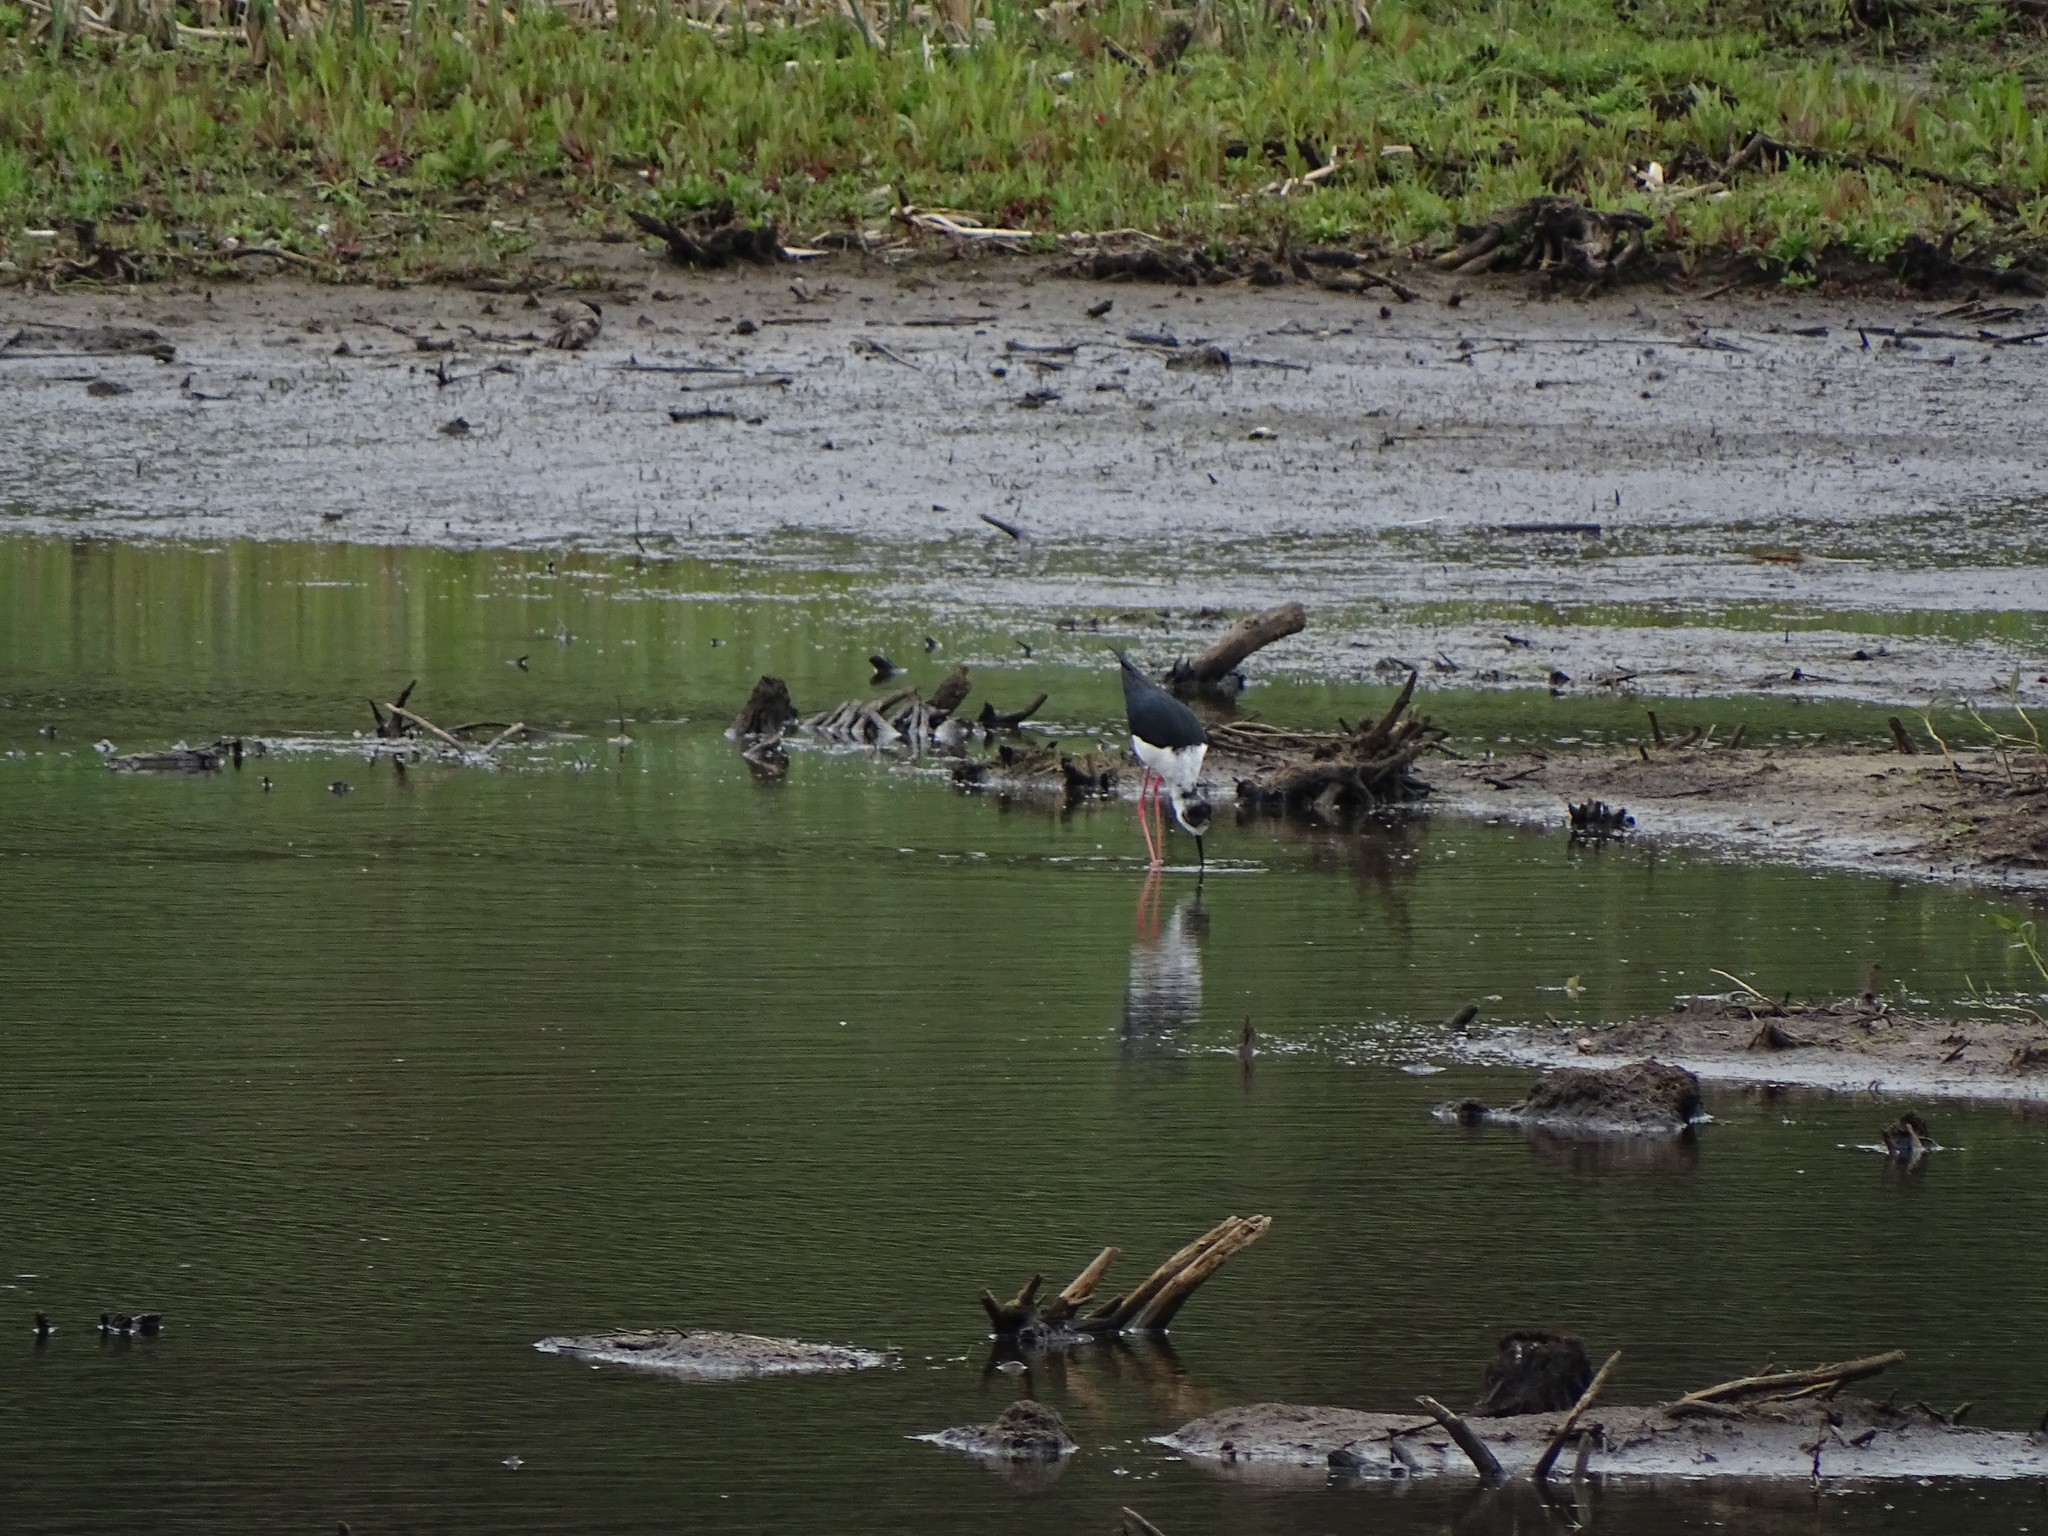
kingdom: Animalia
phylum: Chordata
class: Aves
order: Charadriiformes
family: Recurvirostridae
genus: Himantopus
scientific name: Himantopus himantopus
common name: Black-winged stilt
